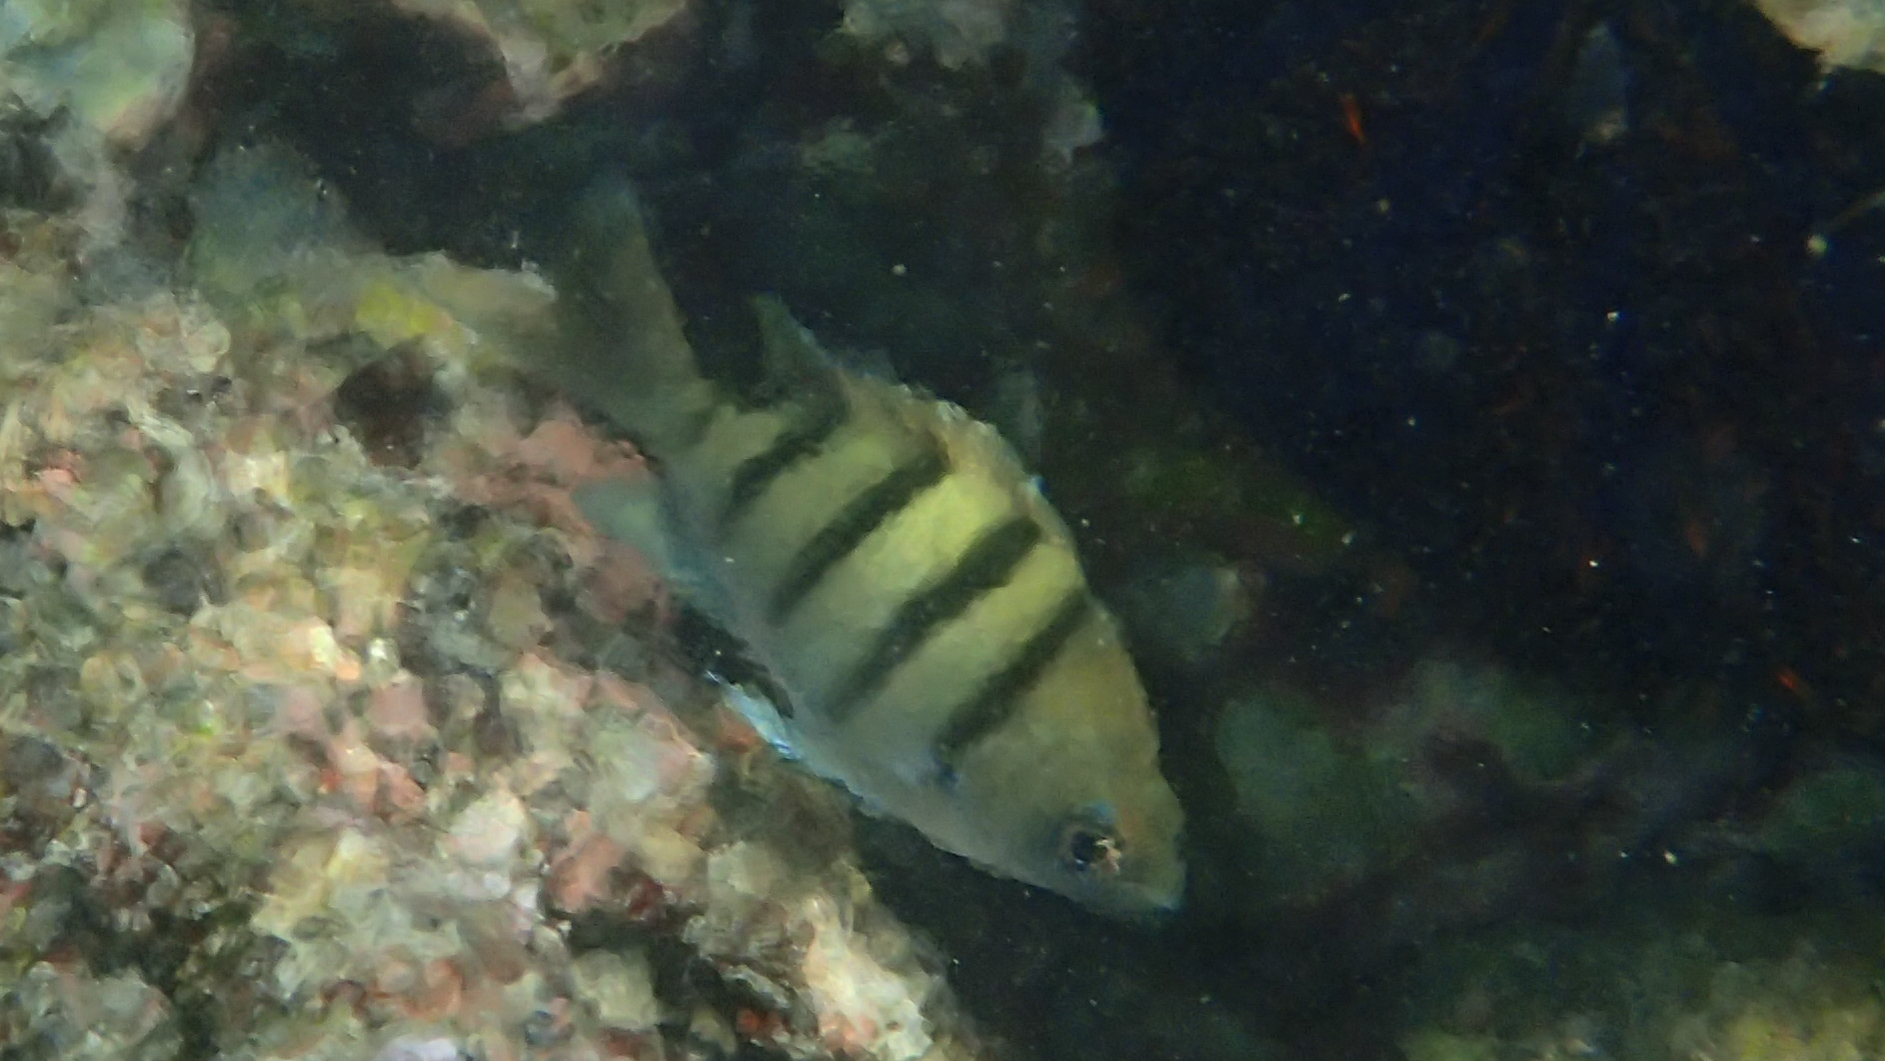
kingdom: Animalia
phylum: Chordata
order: Perciformes
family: Pomacentridae
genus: Abudefduf
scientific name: Abudefduf abdominalis
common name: Green damselfish
